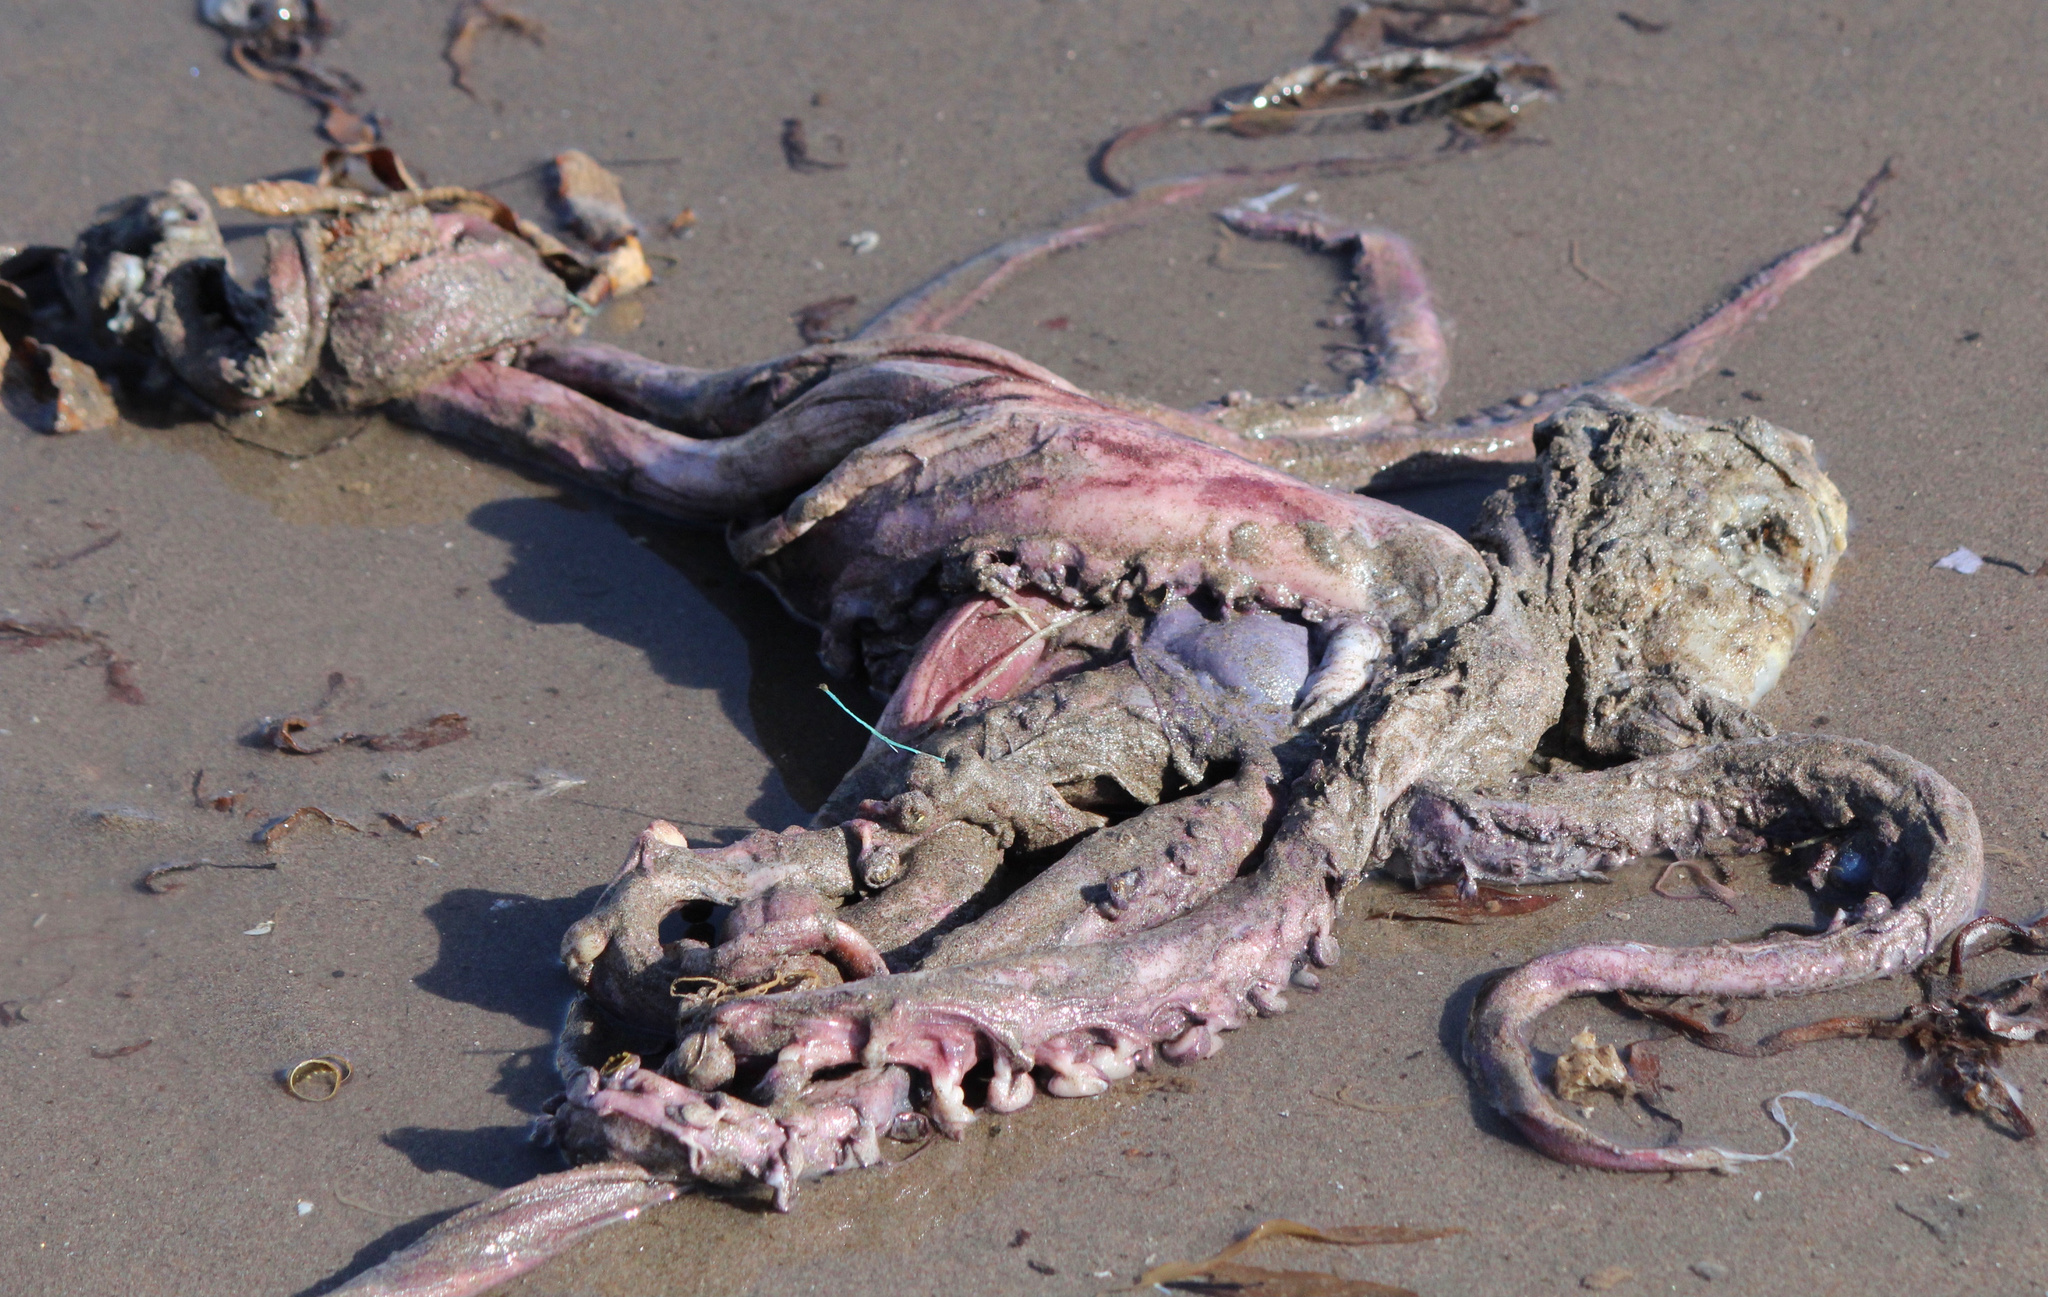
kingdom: Animalia
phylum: Mollusca
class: Cephalopoda
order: Oegopsida
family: Ommastrephidae
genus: Dosidicus
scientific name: Dosidicus gigas
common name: Humboldt squid
